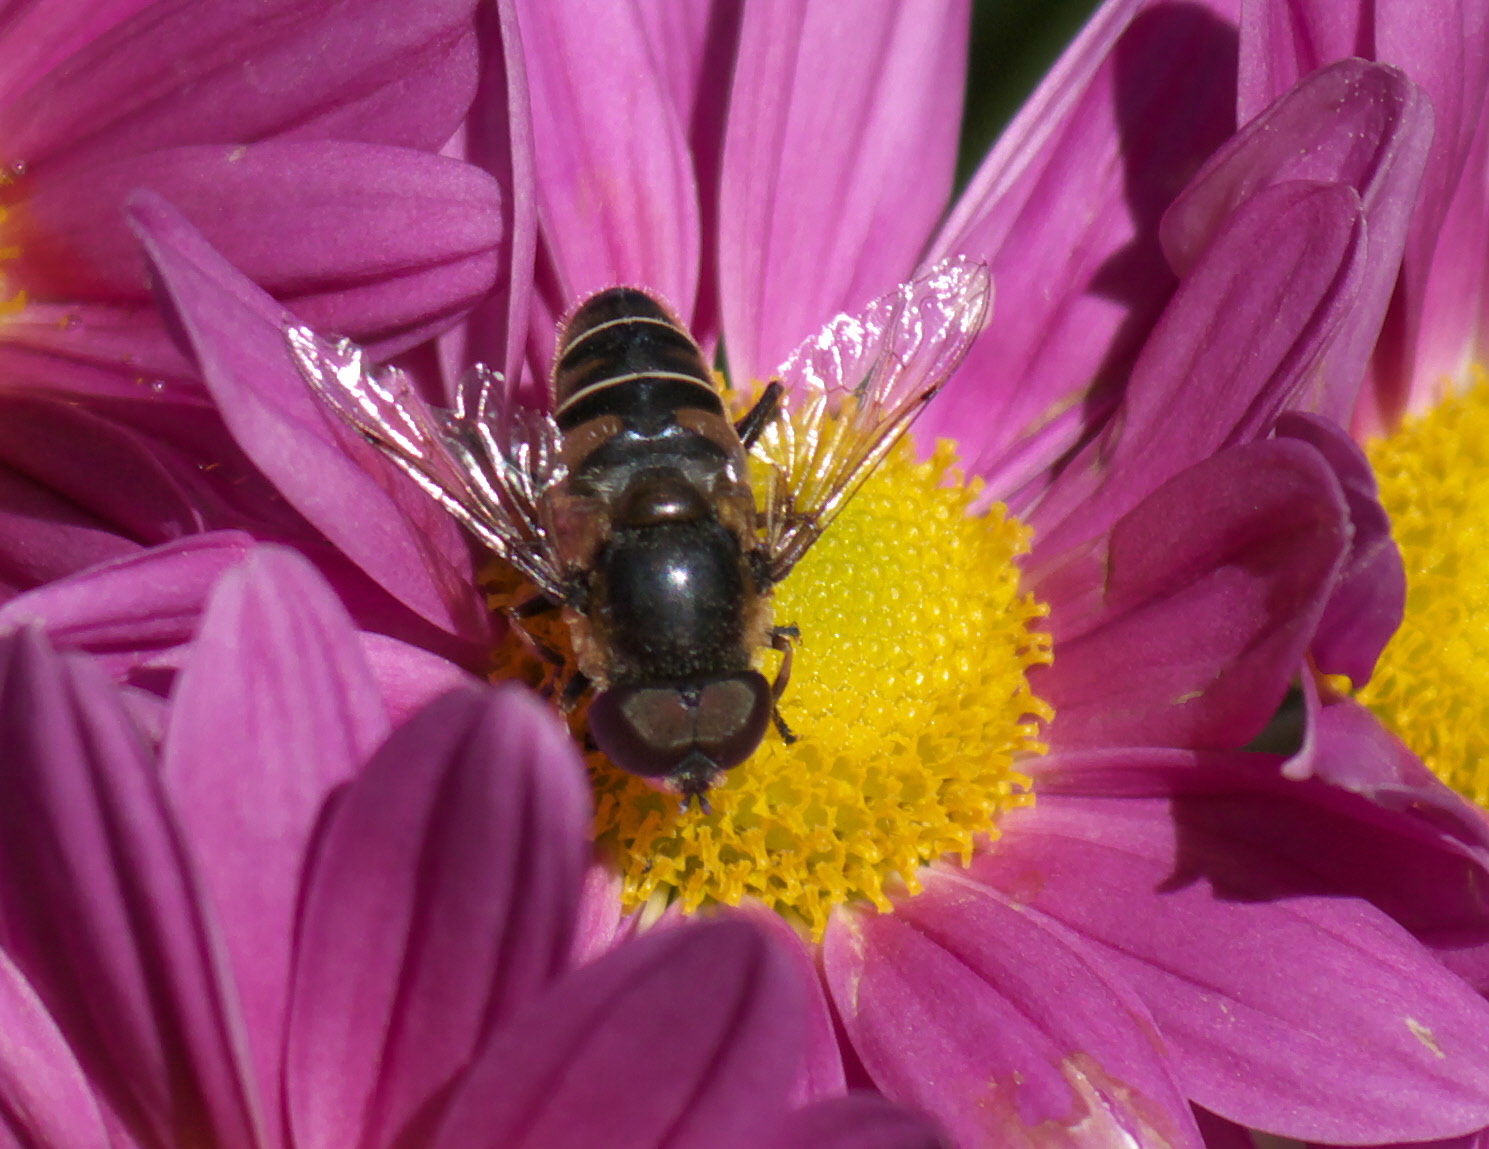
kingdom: Animalia
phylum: Arthropoda
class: Insecta
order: Diptera
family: Syrphidae
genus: Eristalis
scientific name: Eristalis dimidiata
